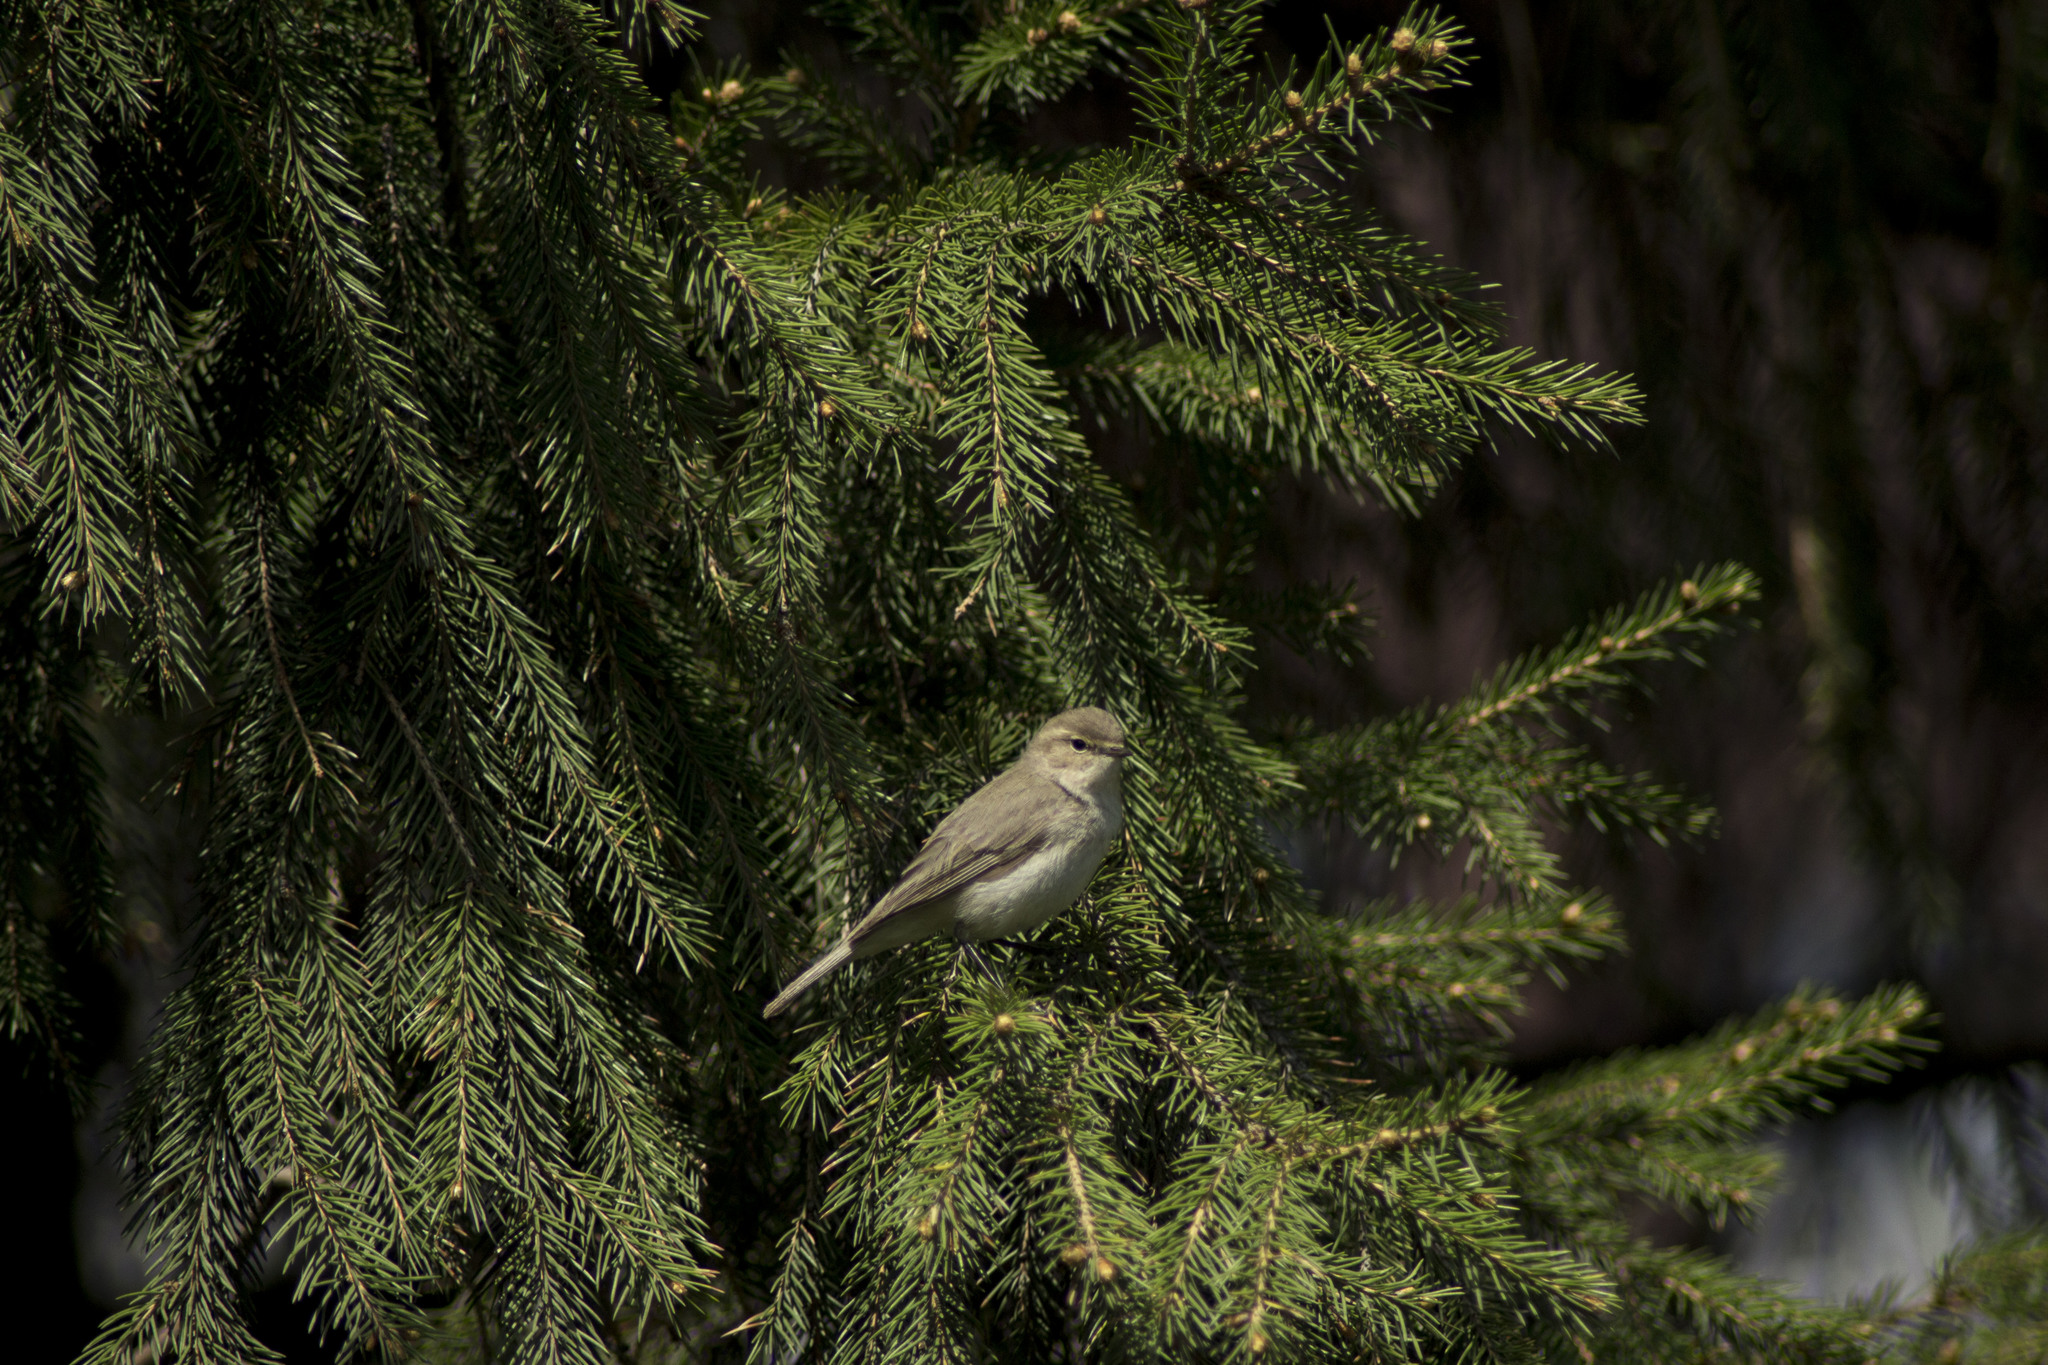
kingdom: Animalia
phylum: Chordata
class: Aves
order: Passeriformes
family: Phylloscopidae
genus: Phylloscopus
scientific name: Phylloscopus collybita
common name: Common chiffchaff
